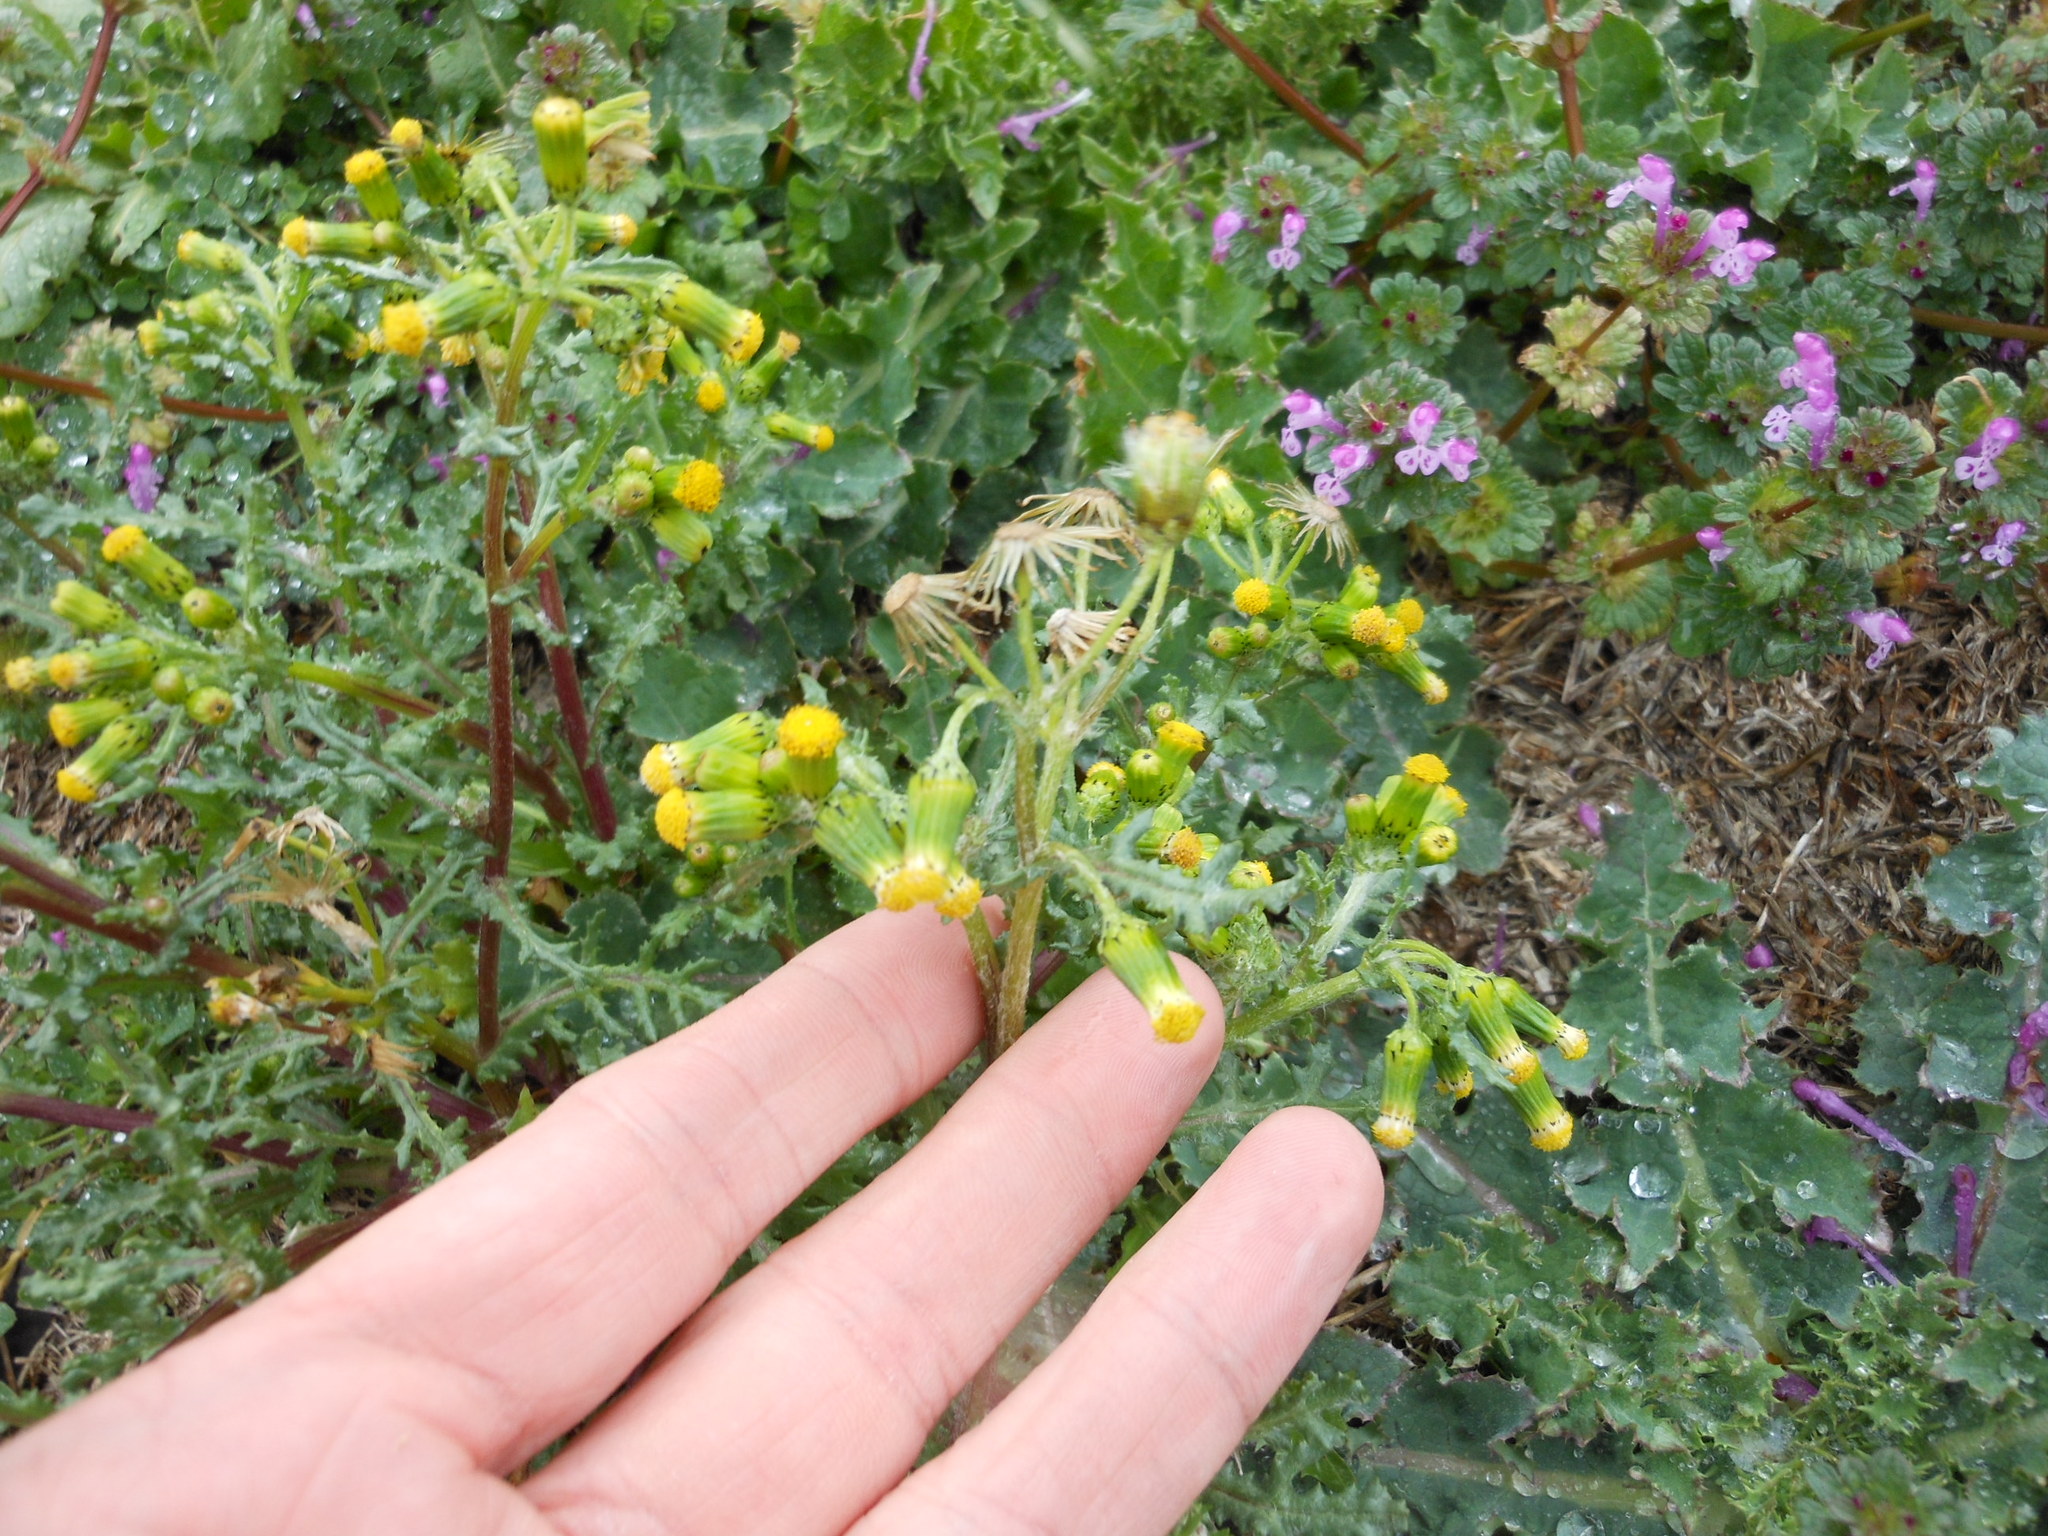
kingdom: Plantae
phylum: Tracheophyta
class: Magnoliopsida
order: Asterales
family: Asteraceae
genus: Senecio
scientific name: Senecio vulgaris
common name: Old-man-in-the-spring
